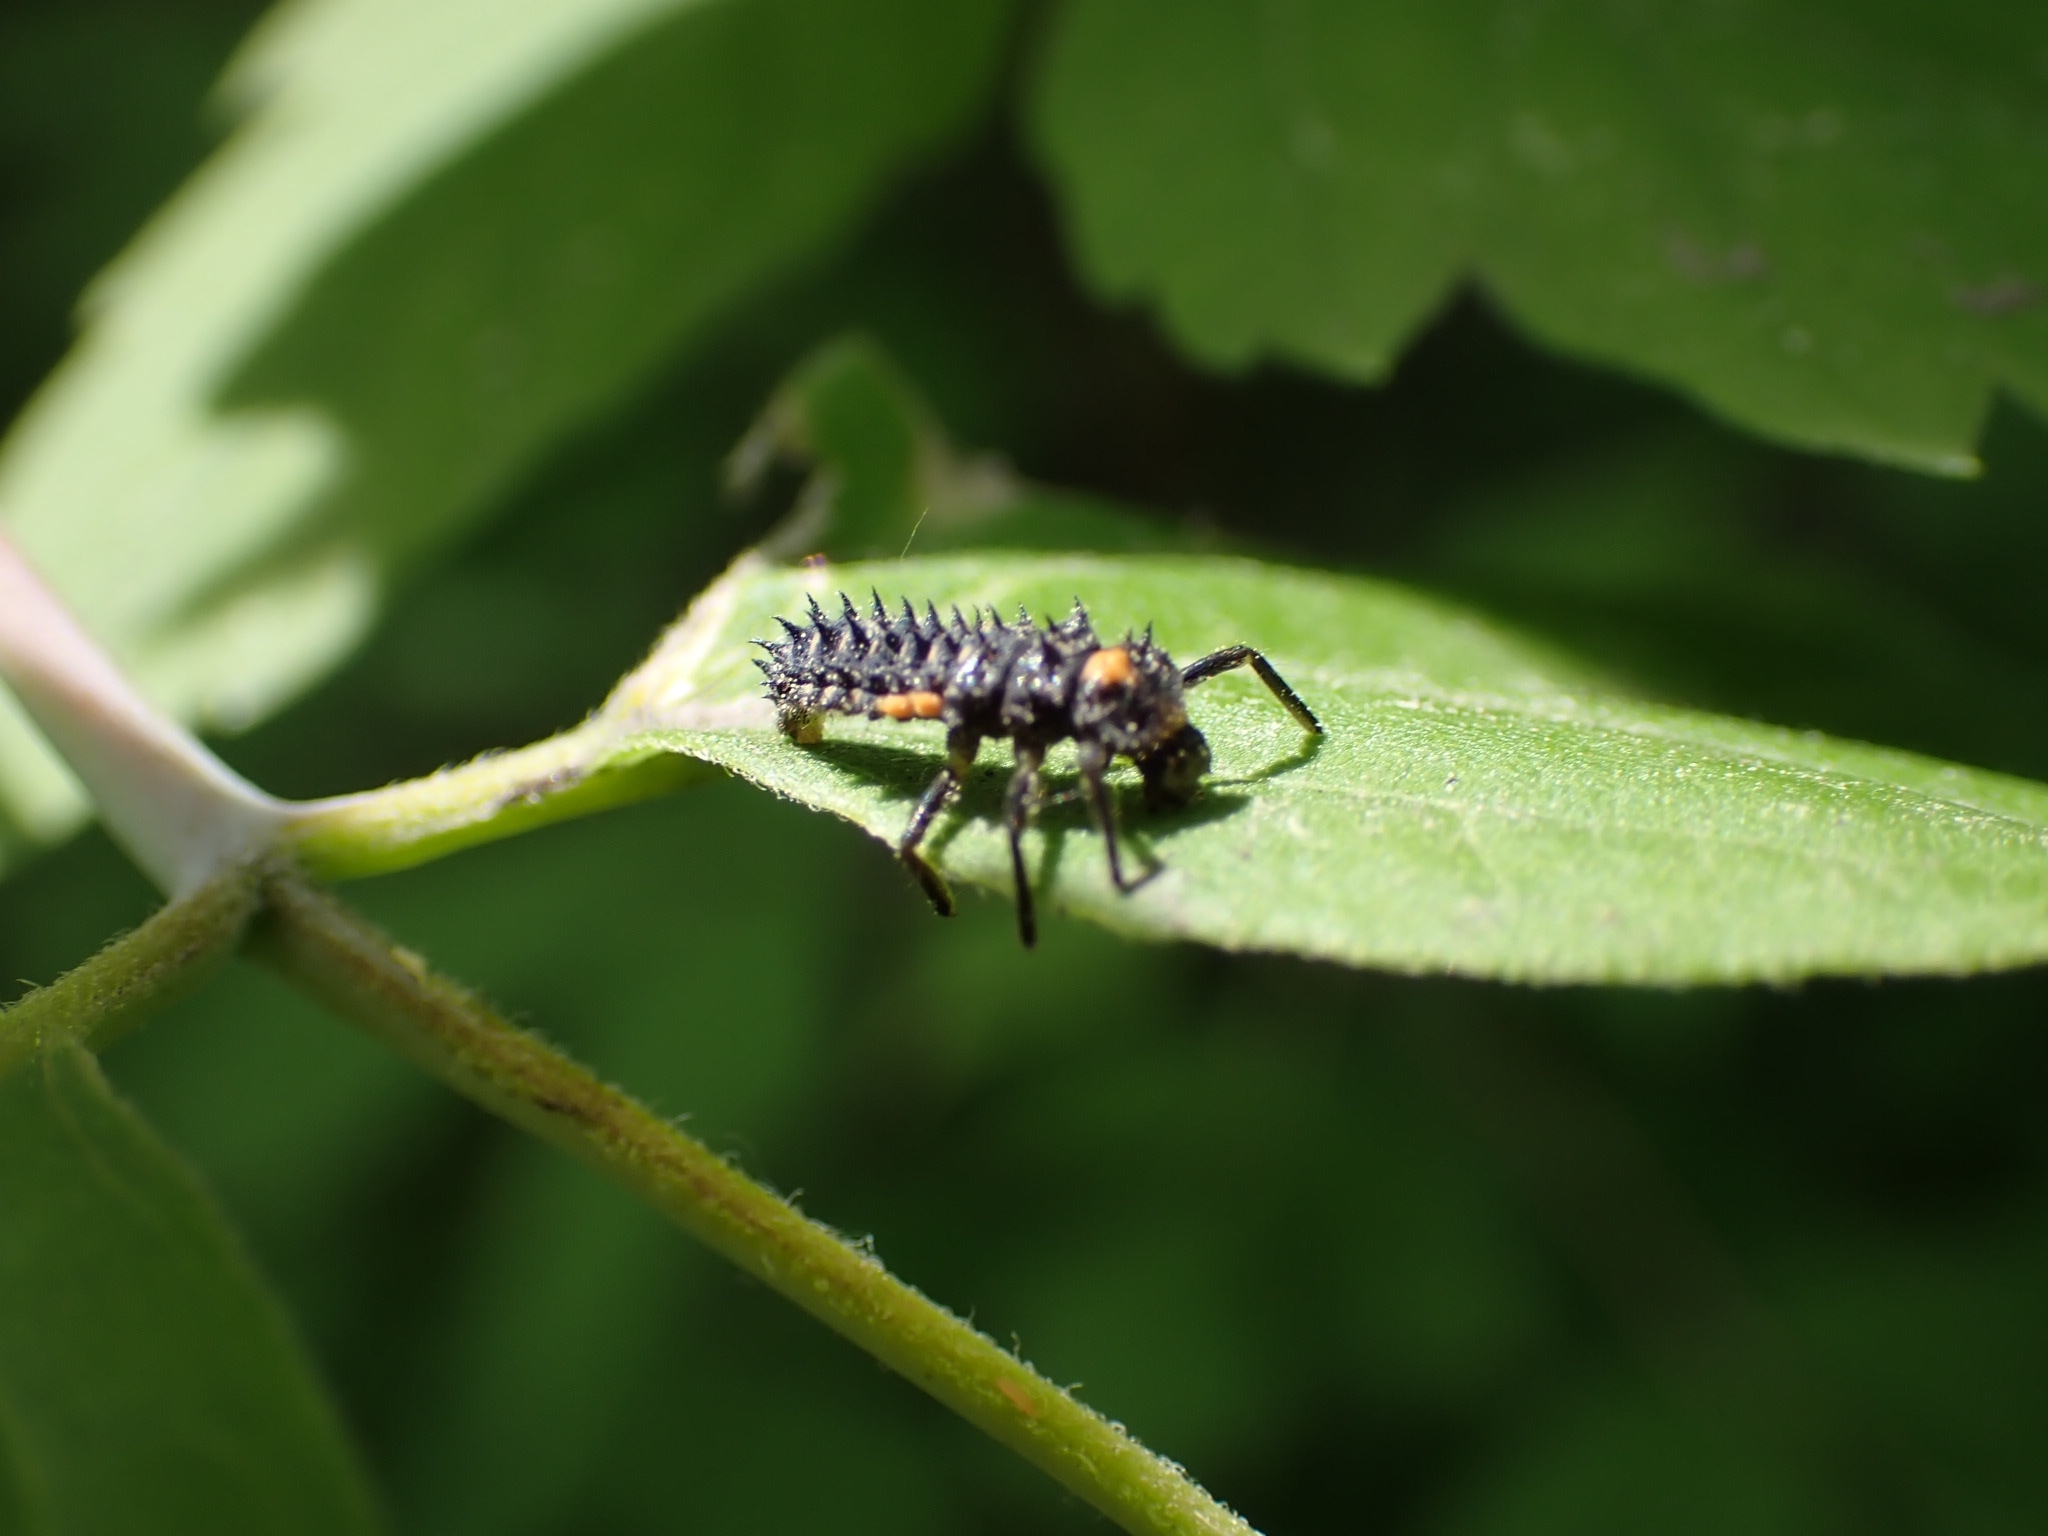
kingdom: Animalia
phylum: Arthropoda
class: Insecta
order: Coleoptera
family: Coccinellidae
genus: Anatis
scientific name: Anatis ocellata
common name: Eyed ladybird
